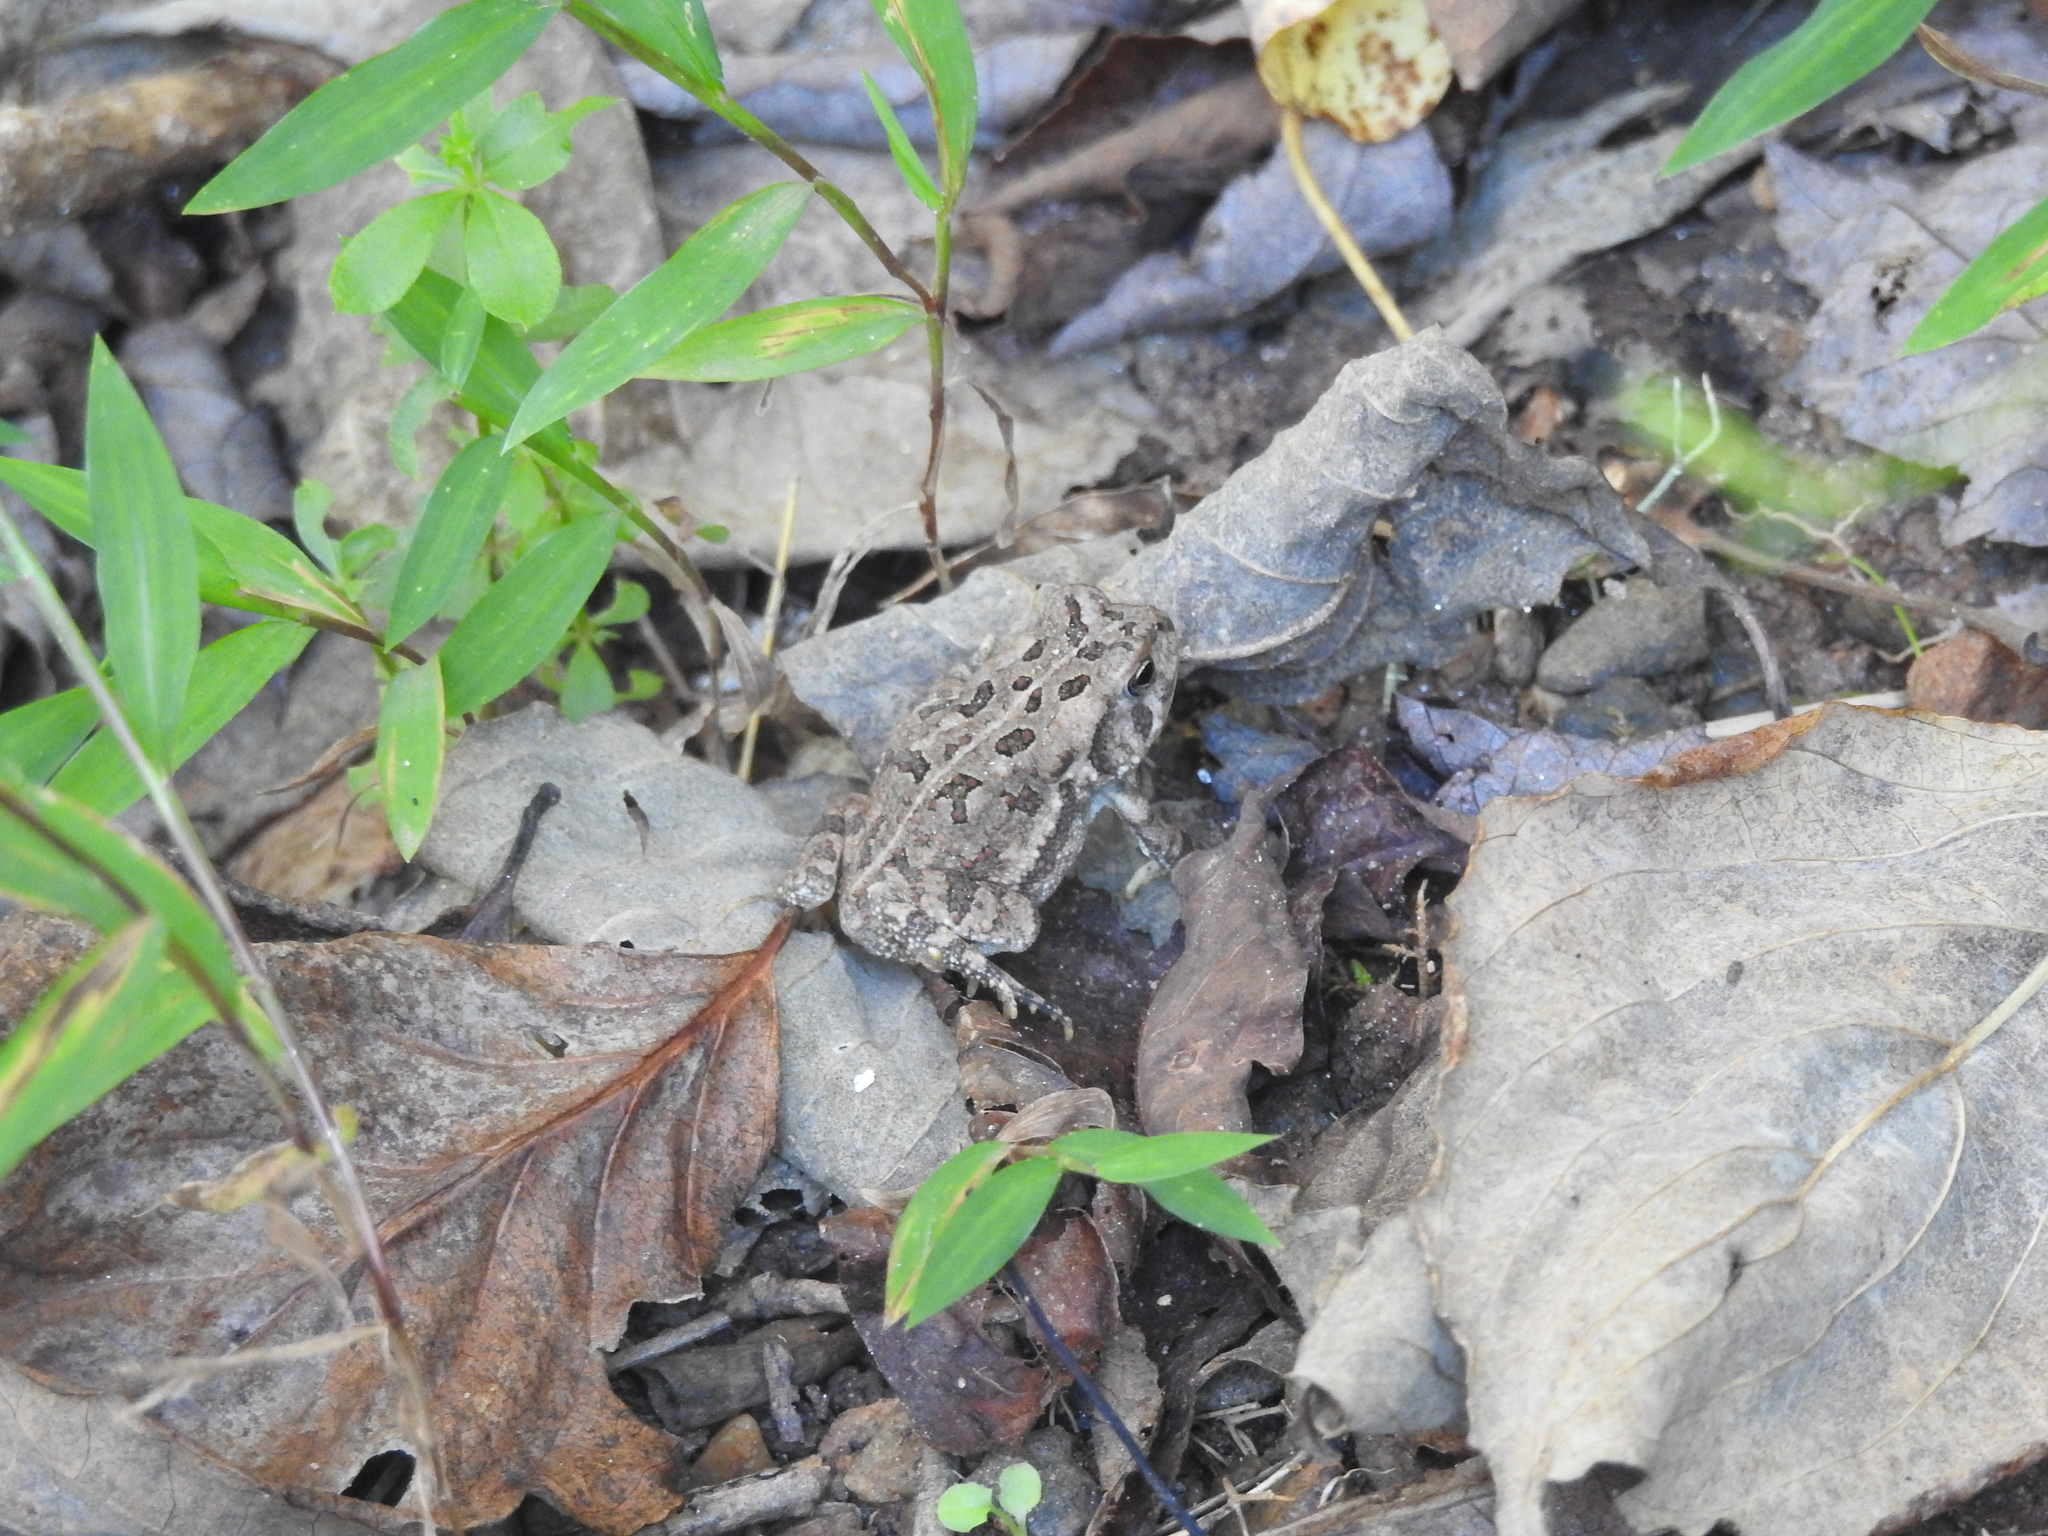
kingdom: Animalia
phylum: Chordata
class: Amphibia
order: Anura
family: Bufonidae
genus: Anaxyrus
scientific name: Anaxyrus fowleri
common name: Fowler's toad
